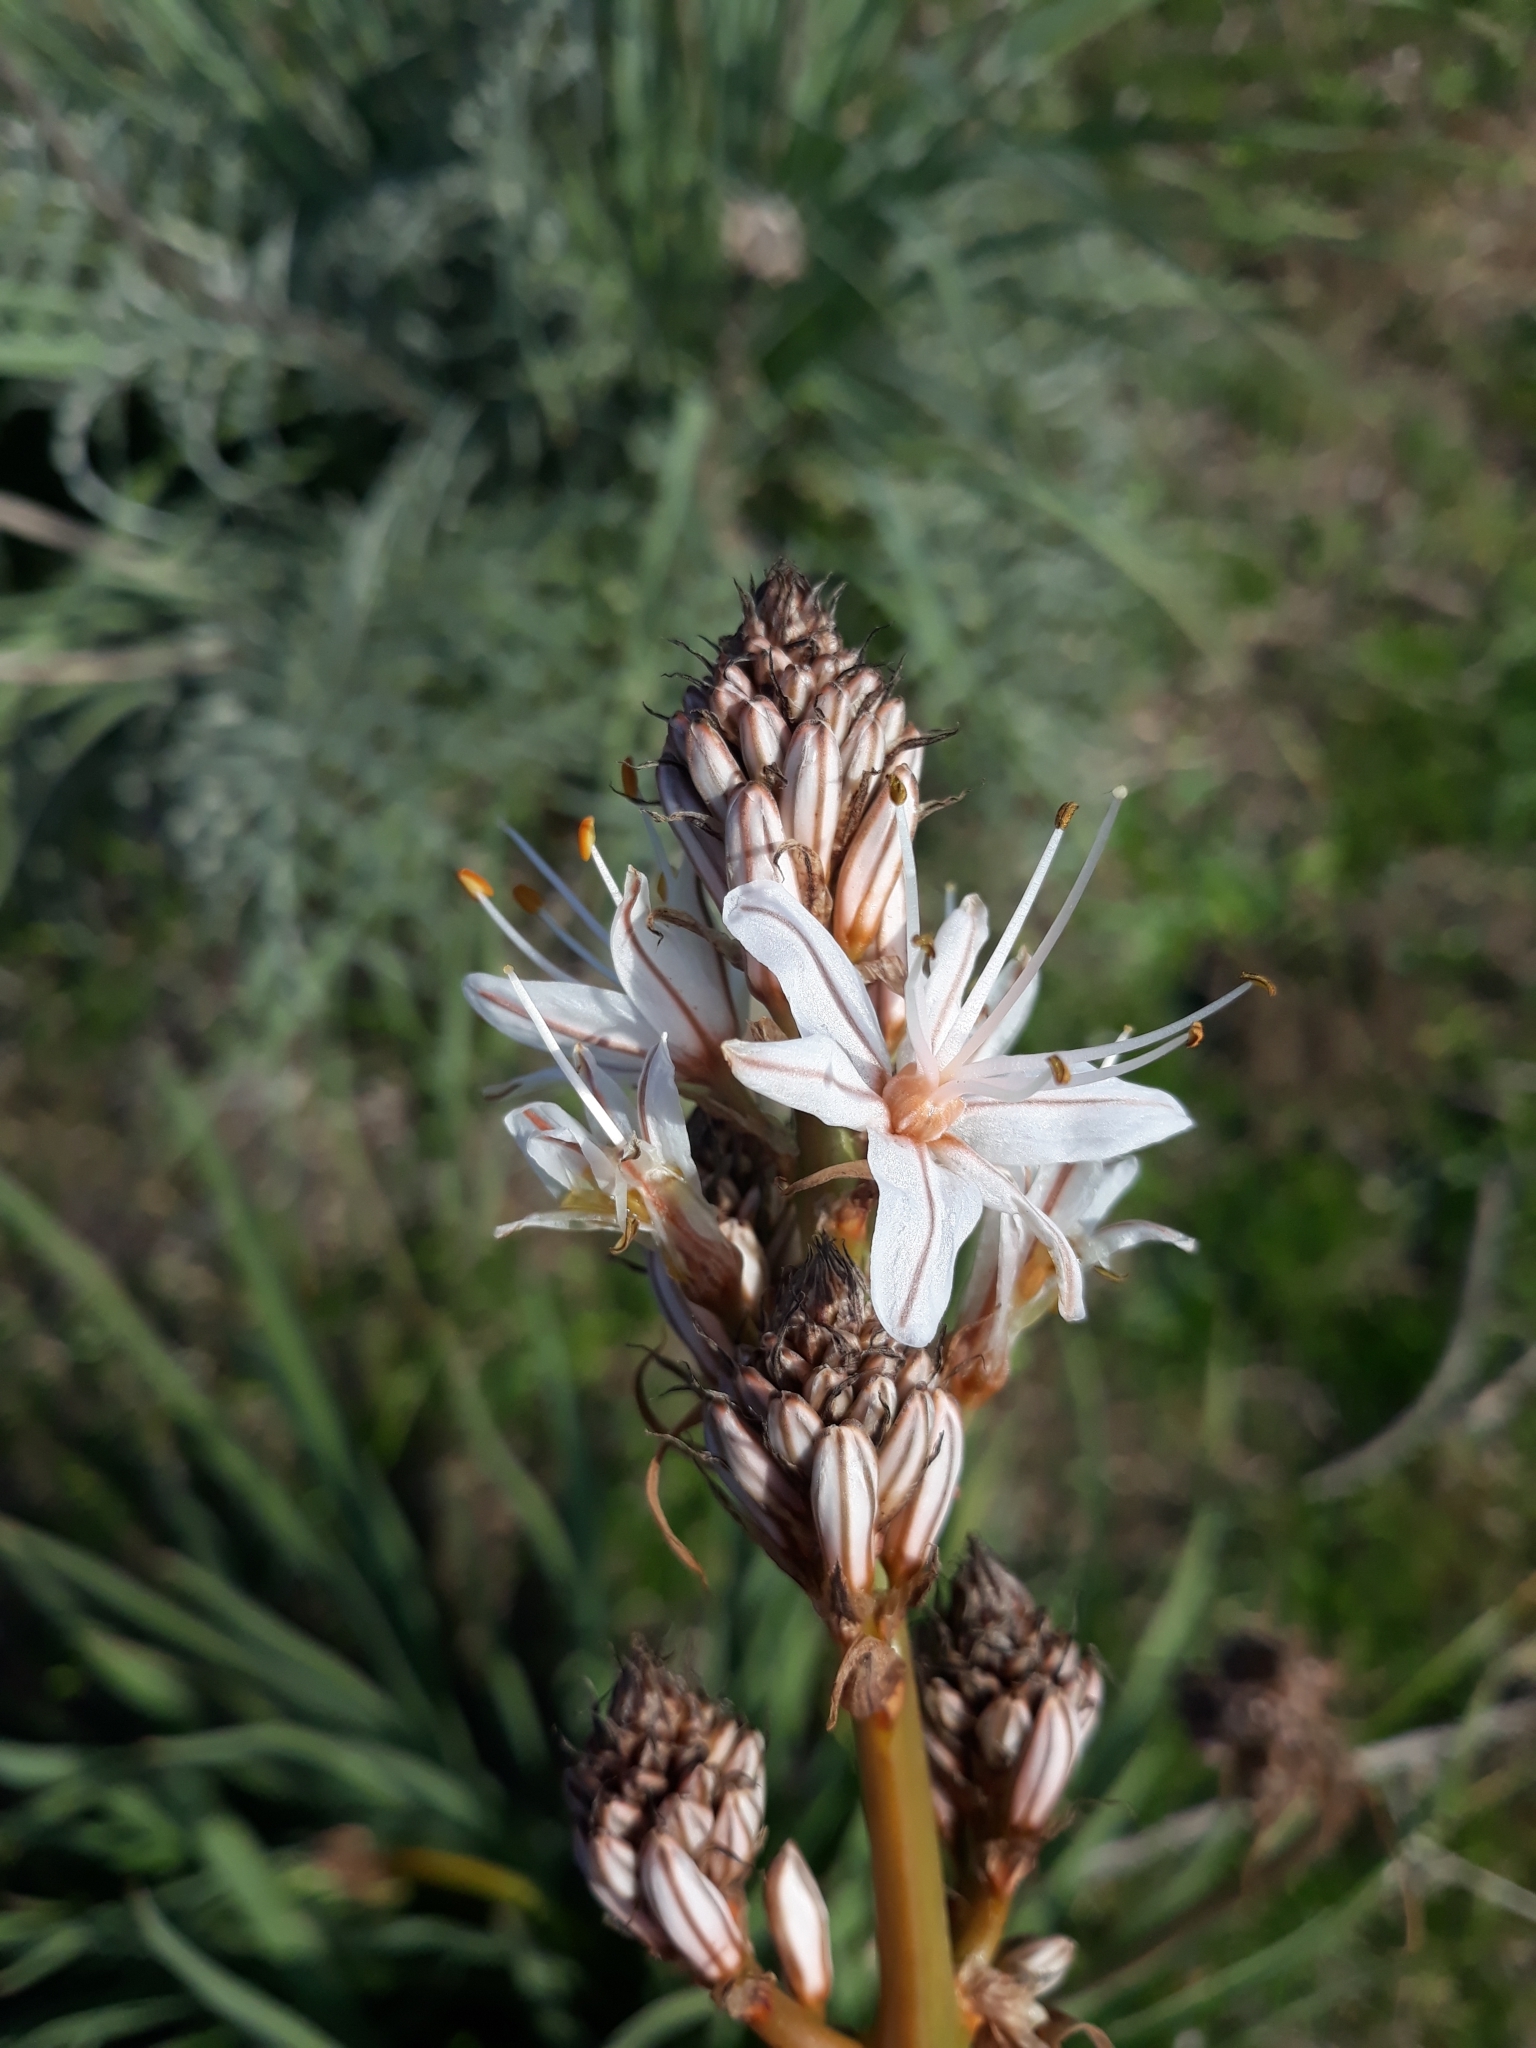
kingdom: Plantae
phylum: Tracheophyta
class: Liliopsida
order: Asparagales
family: Asphodelaceae
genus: Asphodelus
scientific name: Asphodelus ramosus
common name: Silverrod
